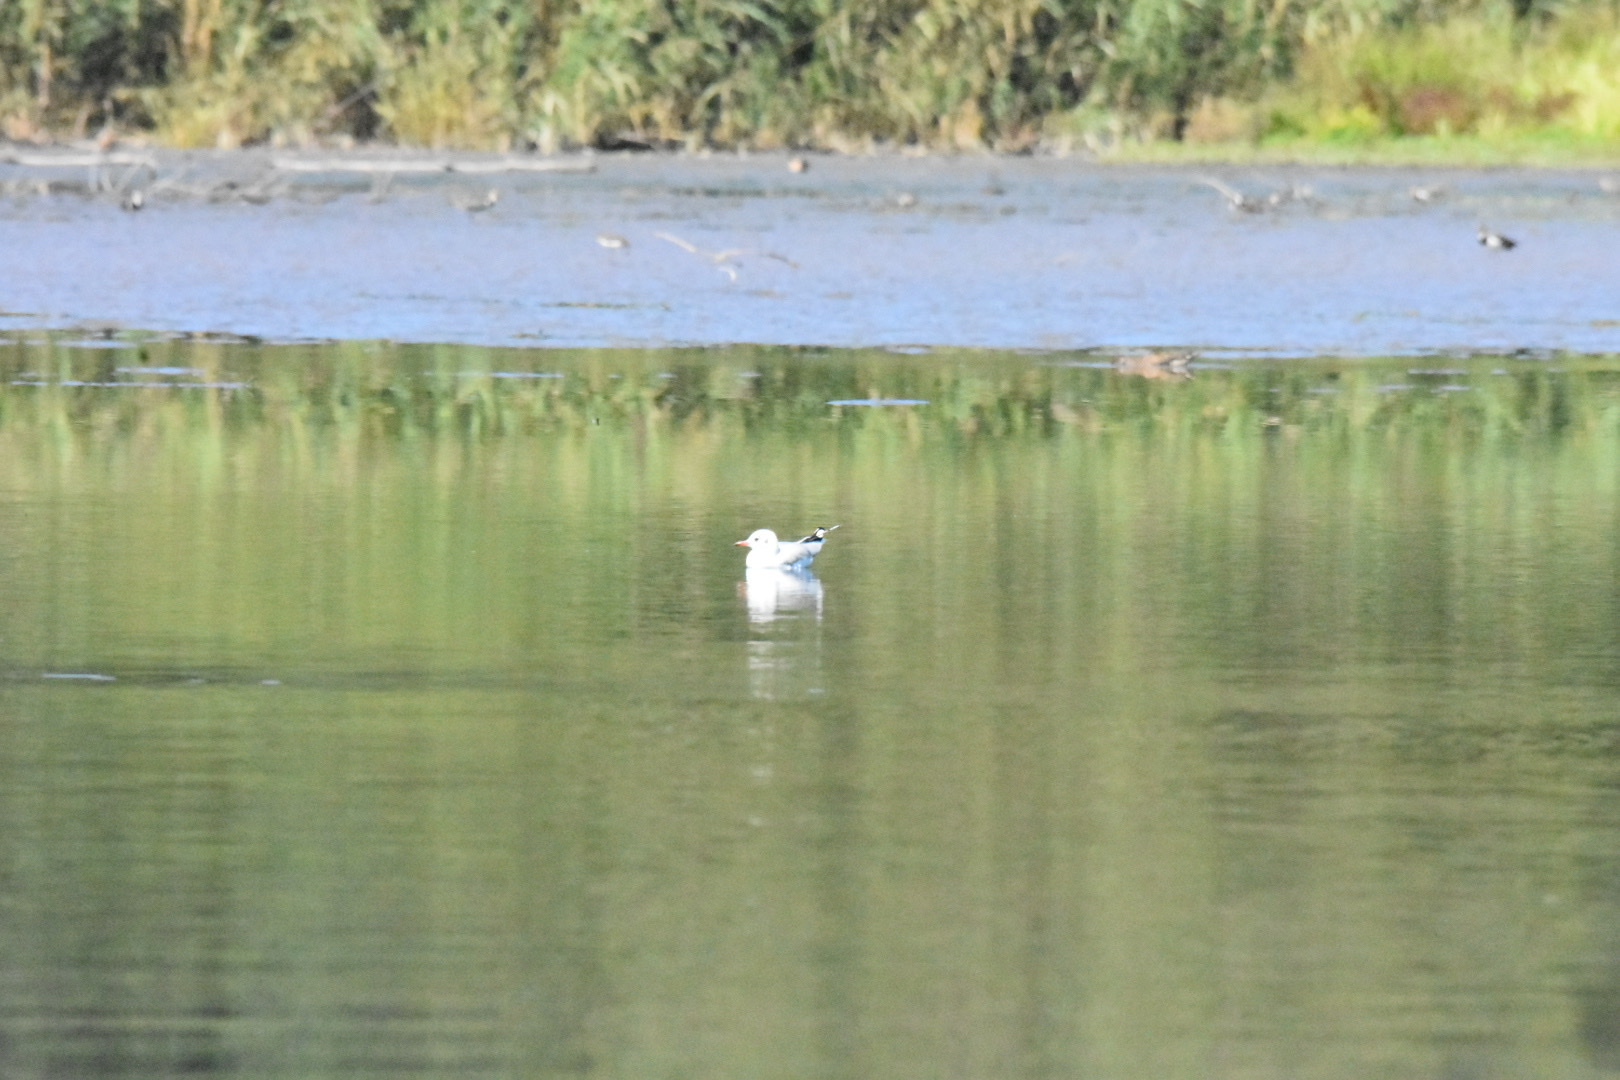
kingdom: Animalia
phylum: Chordata
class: Aves
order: Charadriiformes
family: Laridae
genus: Chroicocephalus
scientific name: Chroicocephalus ridibundus
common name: Black-headed gull
